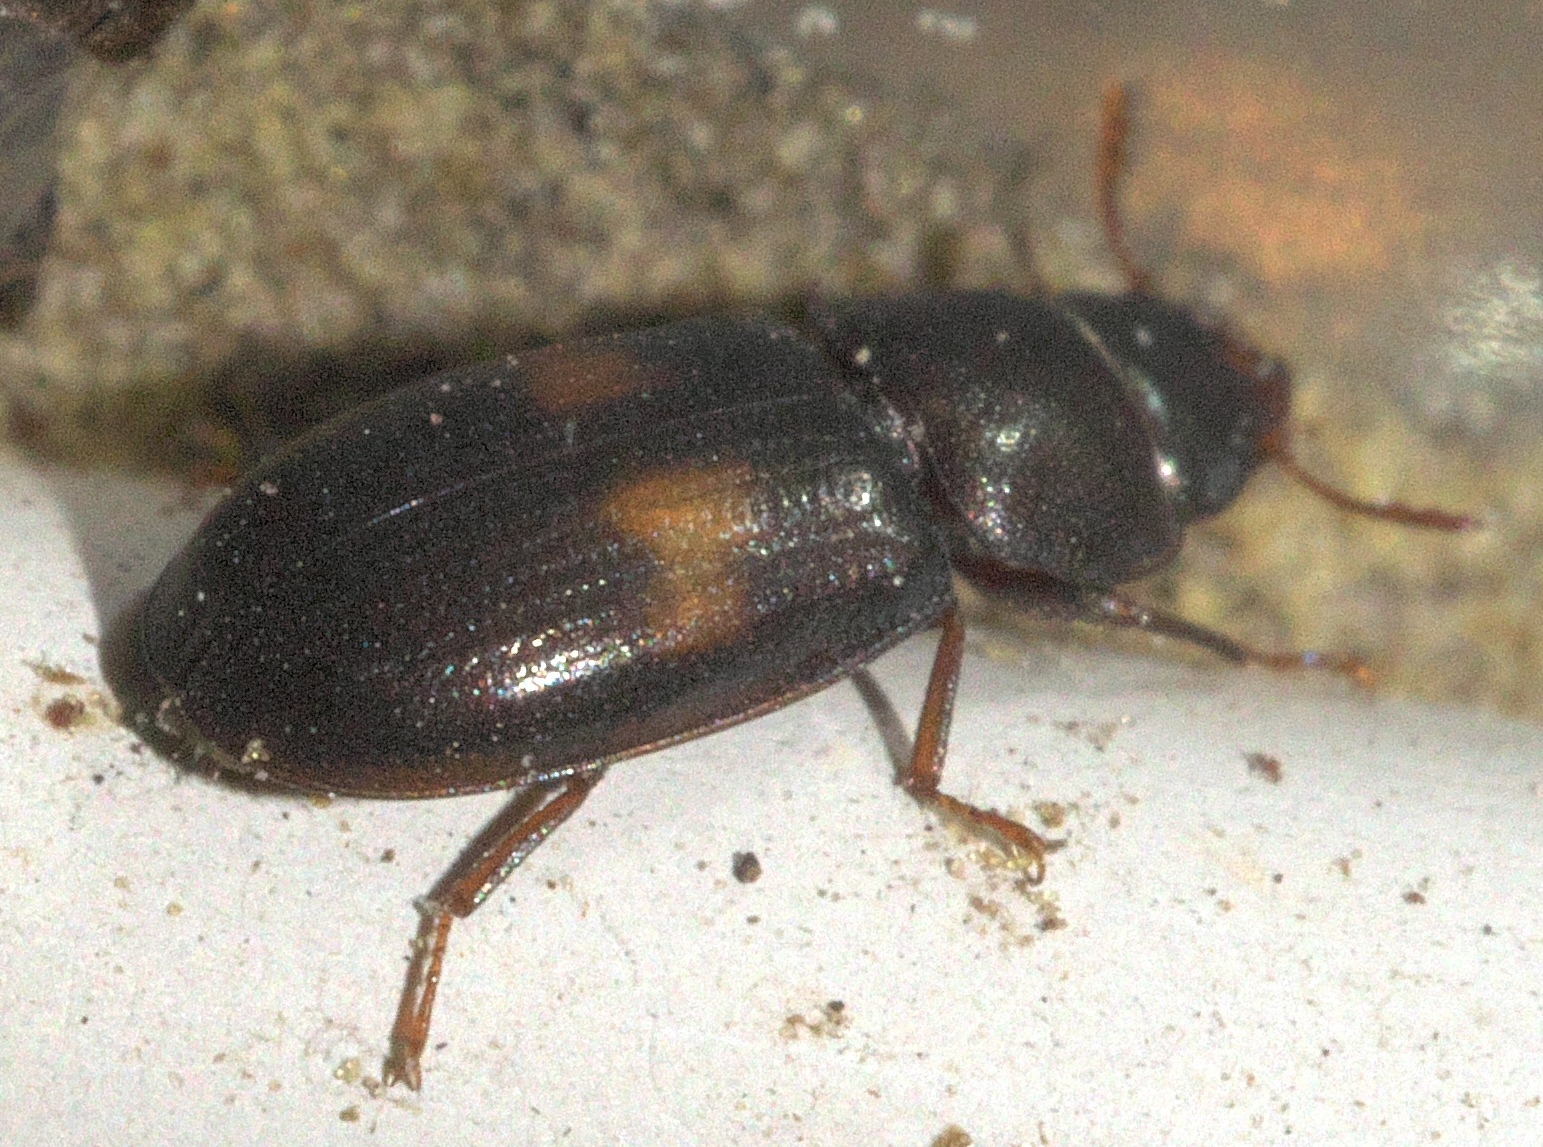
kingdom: Animalia
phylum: Arthropoda
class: Insecta
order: Coleoptera
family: Trogossitidae
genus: Tenebroides
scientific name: Tenebroides
